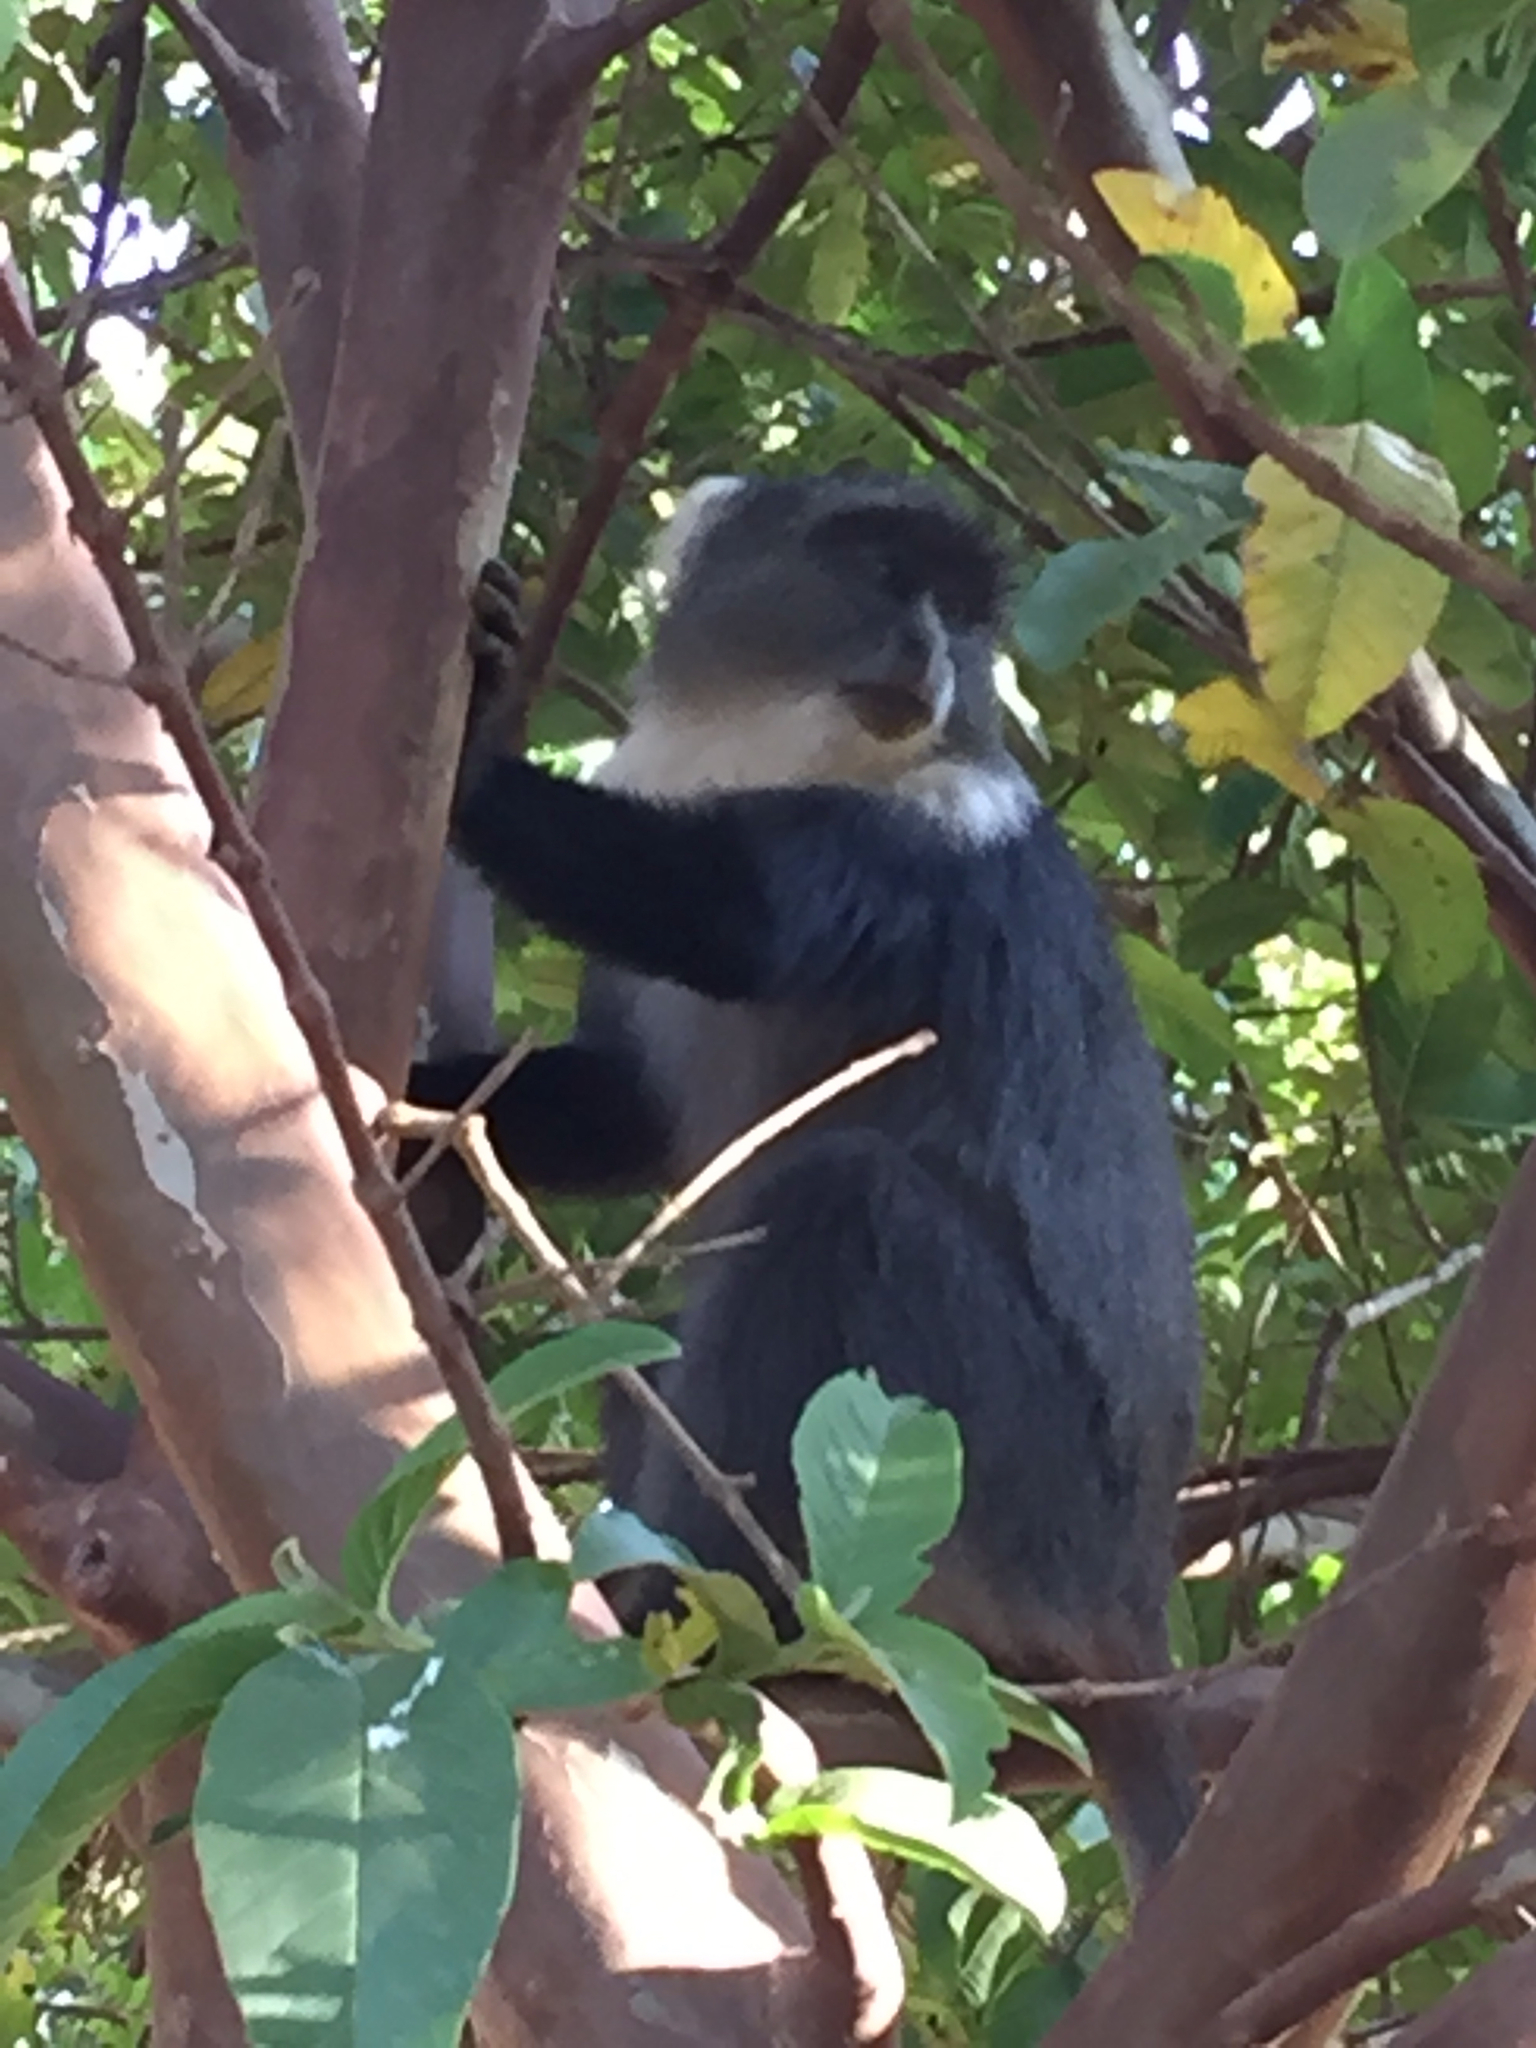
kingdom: Animalia
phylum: Chordata
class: Mammalia
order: Primates
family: Cercopithecidae
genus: Cercopithecus
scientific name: Cercopithecus mitis
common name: Blue monkey
